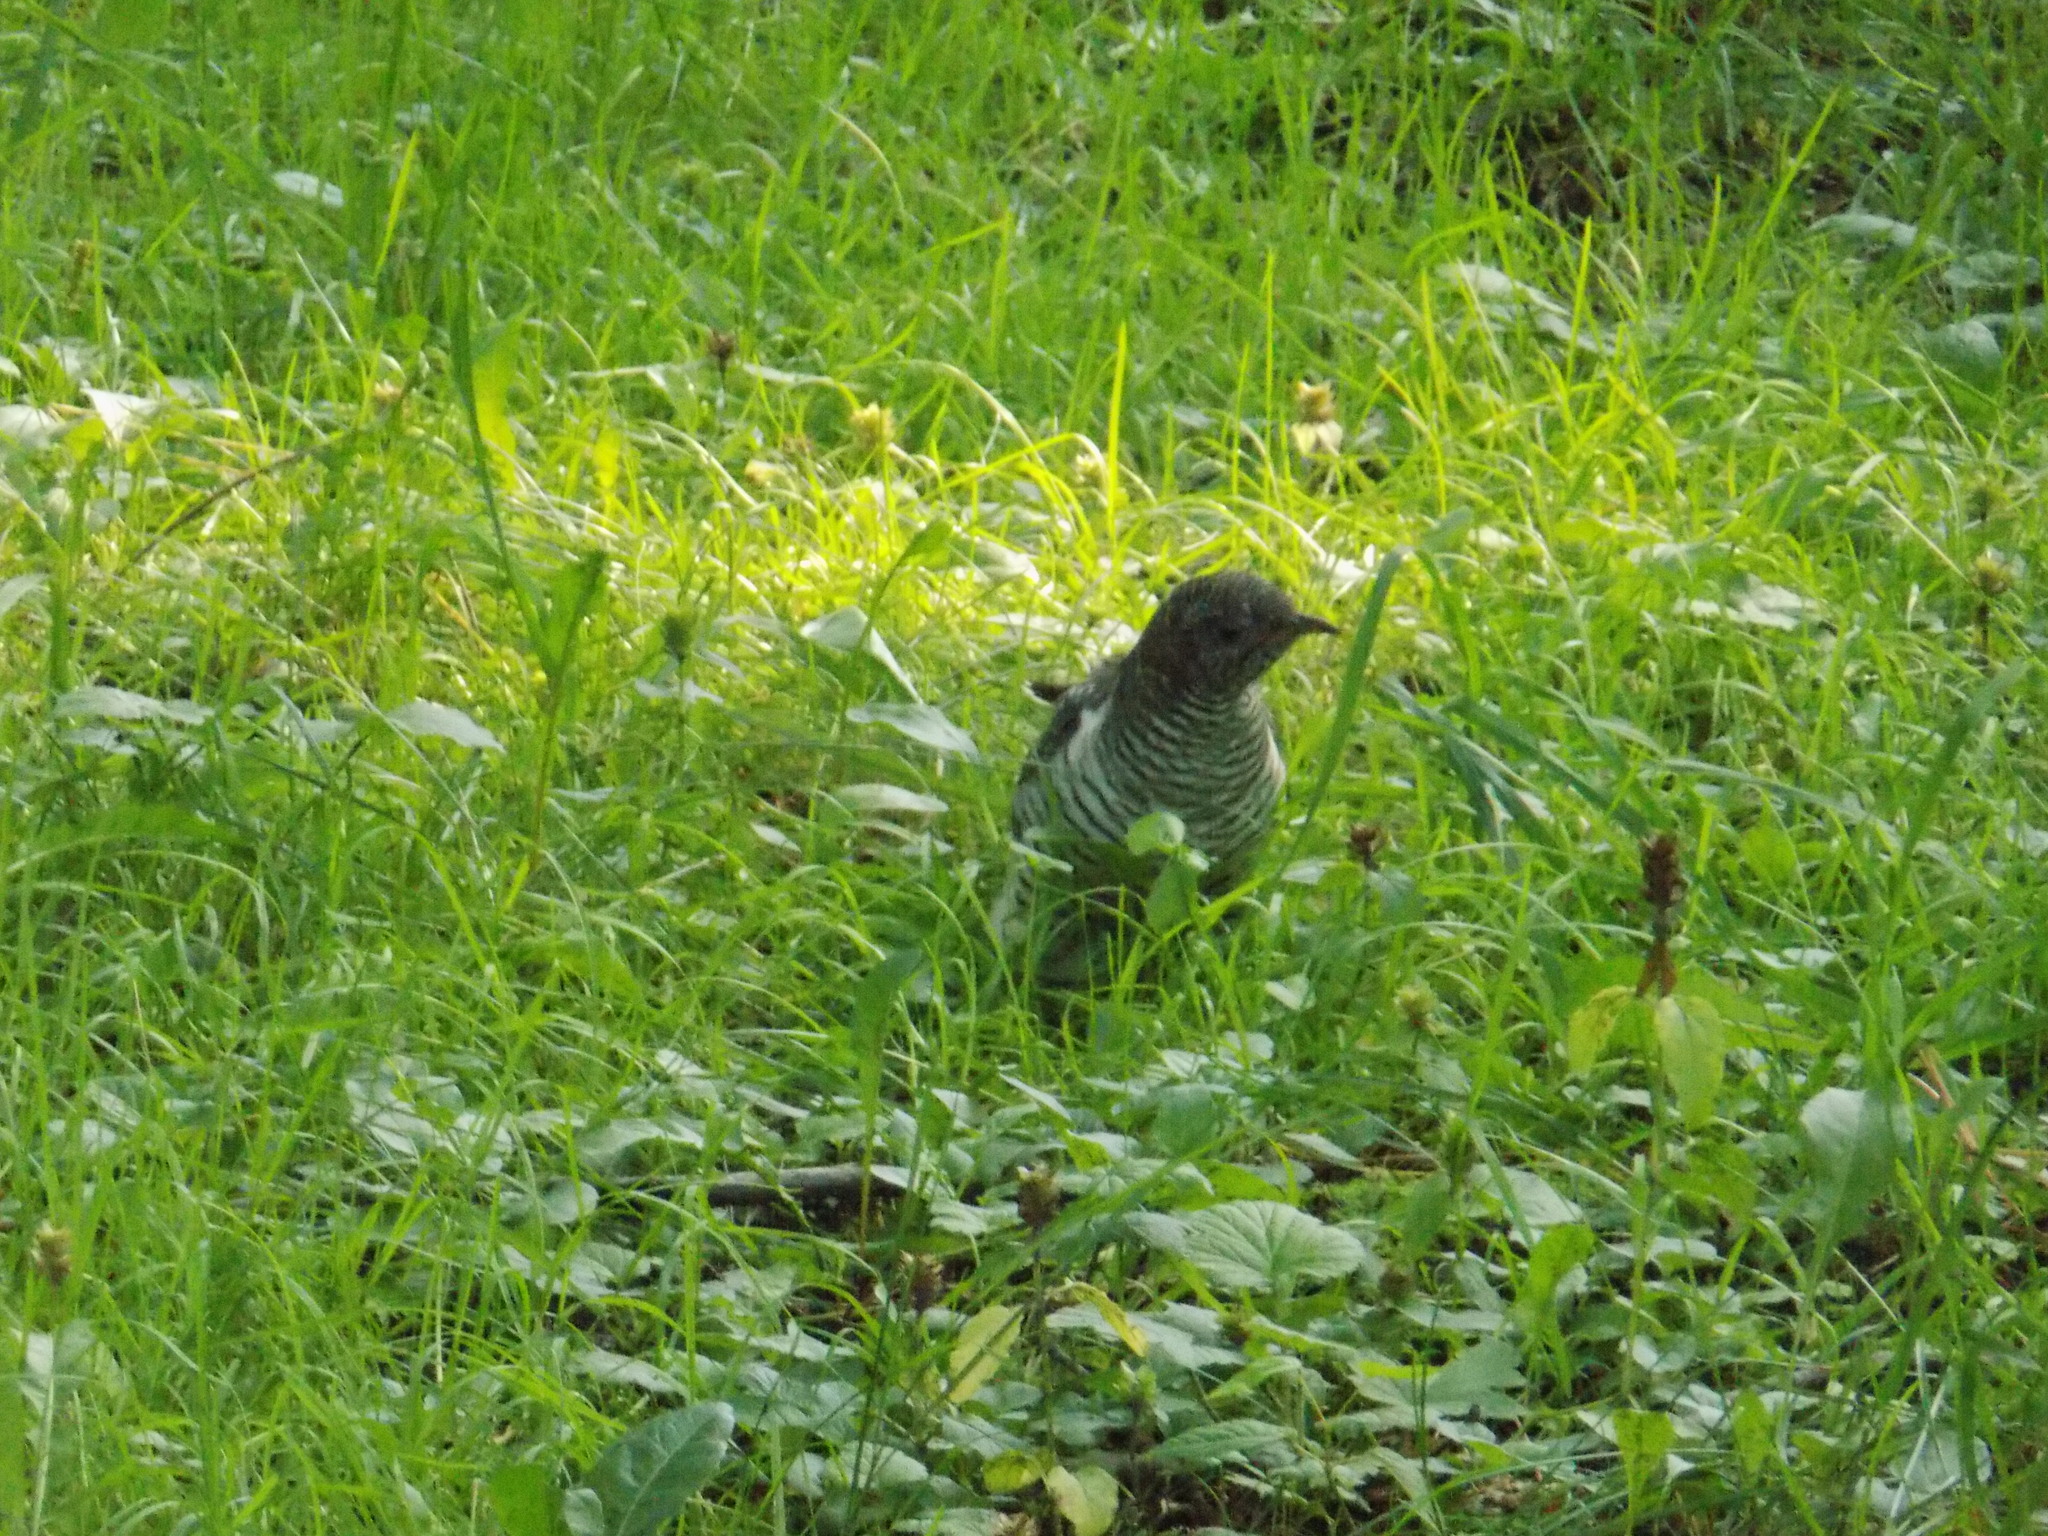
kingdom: Animalia
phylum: Chordata
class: Aves
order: Cuculiformes
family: Cuculidae
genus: Cuculus
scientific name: Cuculus canorus
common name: Common cuckoo
